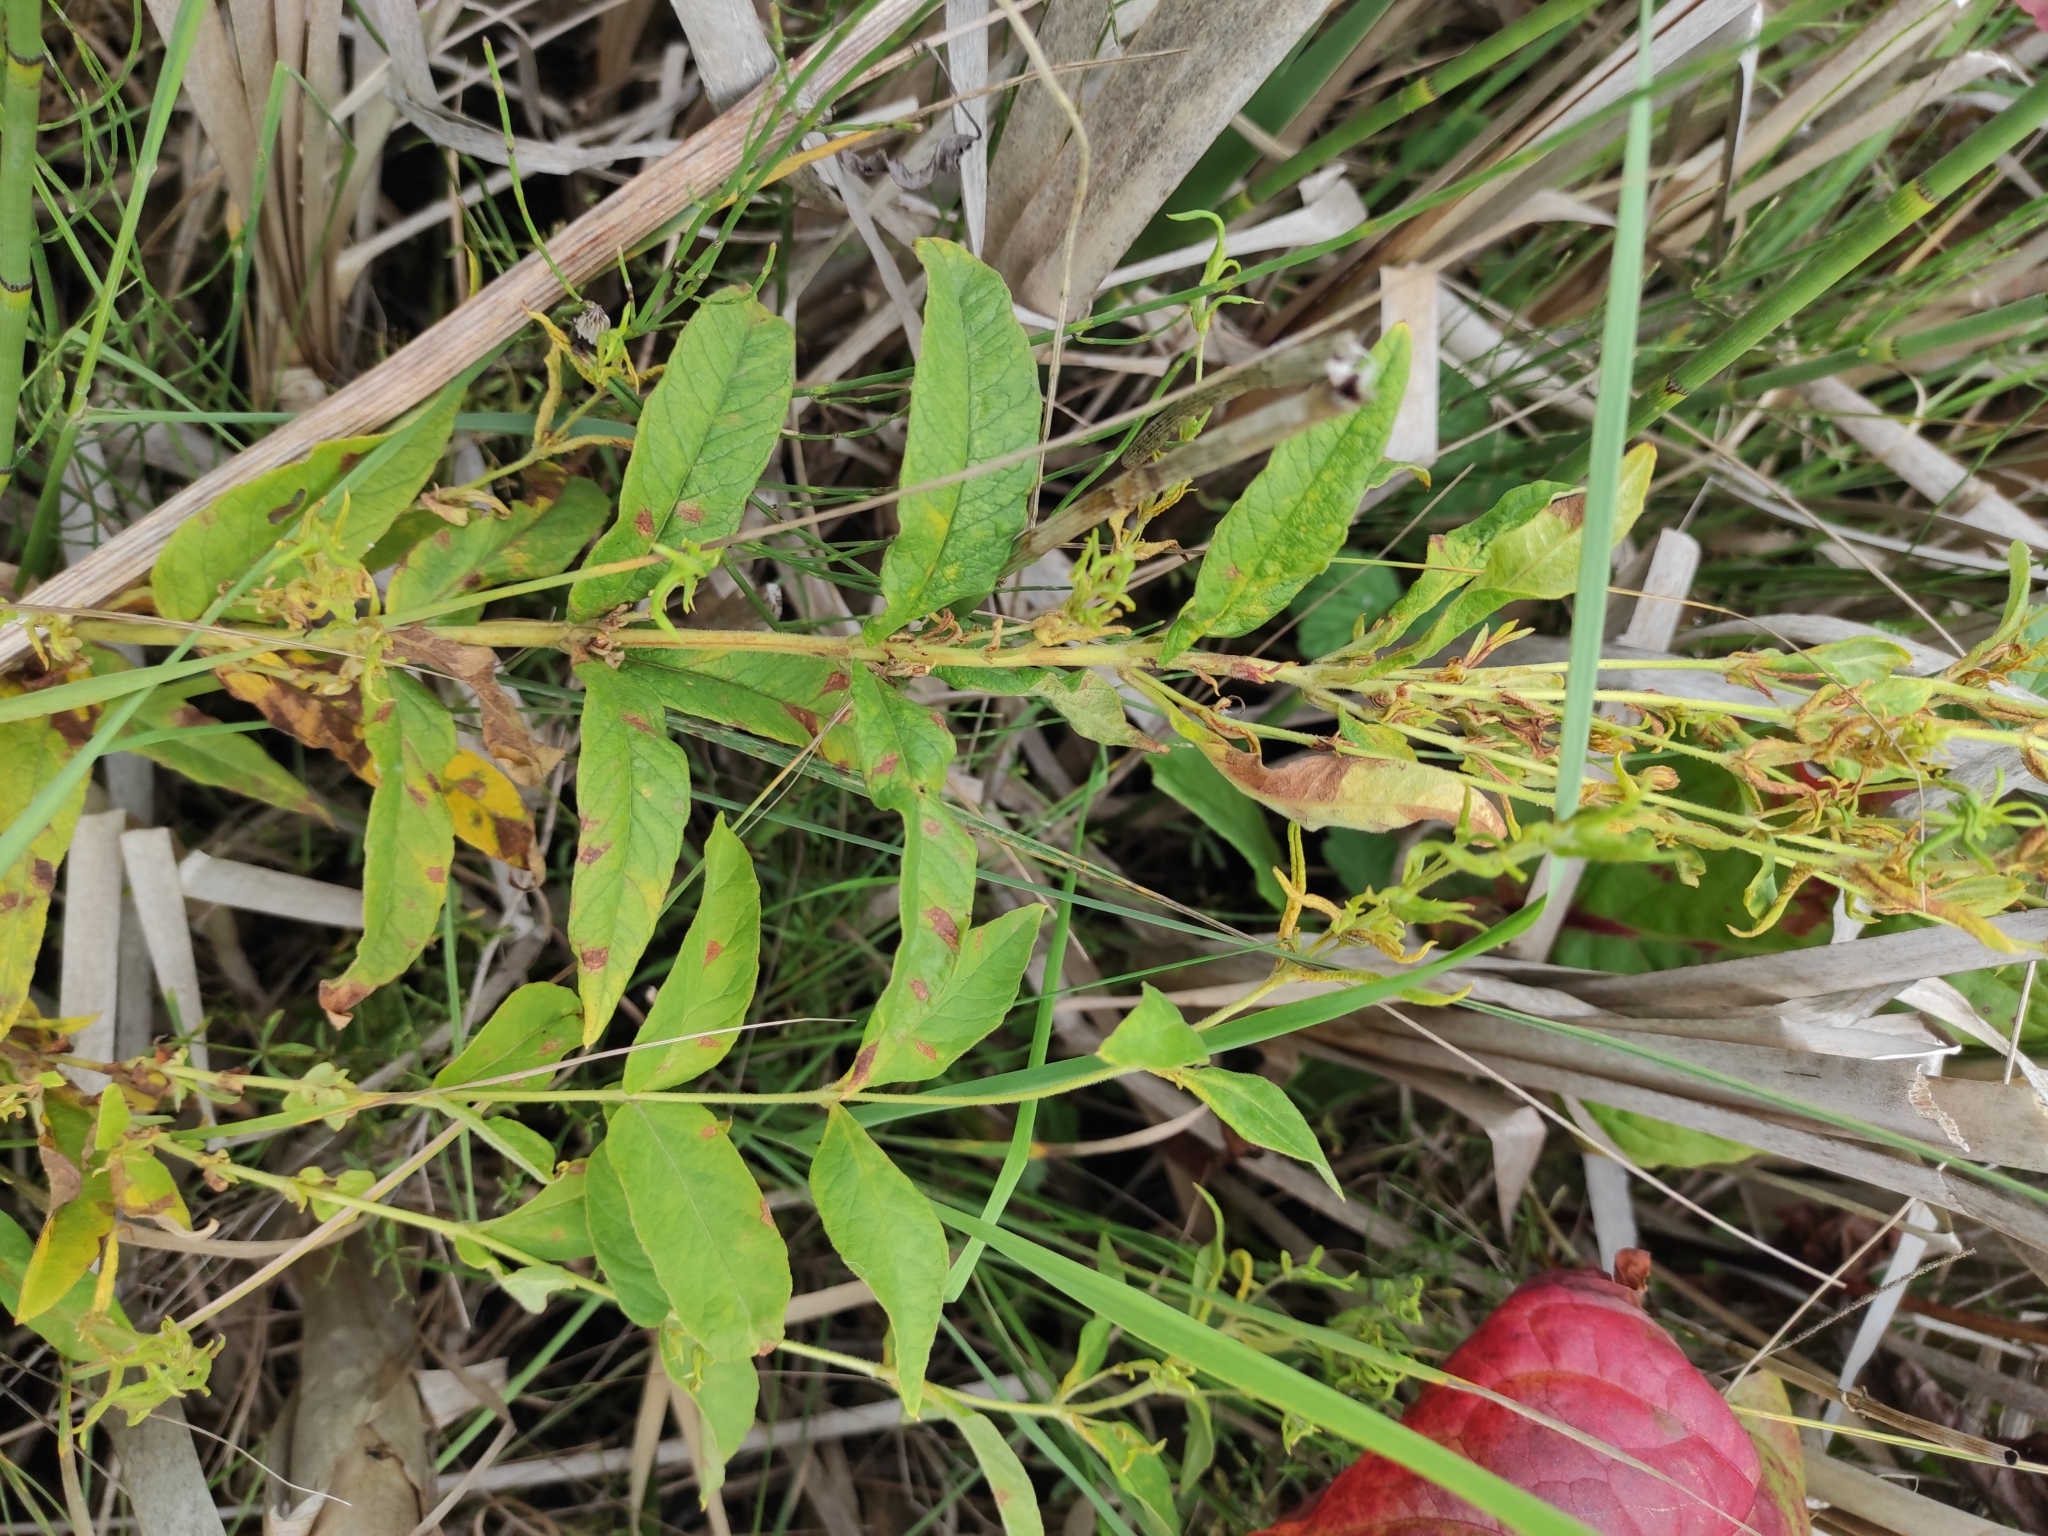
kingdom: Plantae
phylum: Tracheophyta
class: Magnoliopsida
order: Ericales
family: Primulaceae
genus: Lysimachia
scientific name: Lysimachia vulgaris
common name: Yellow loosestrife
